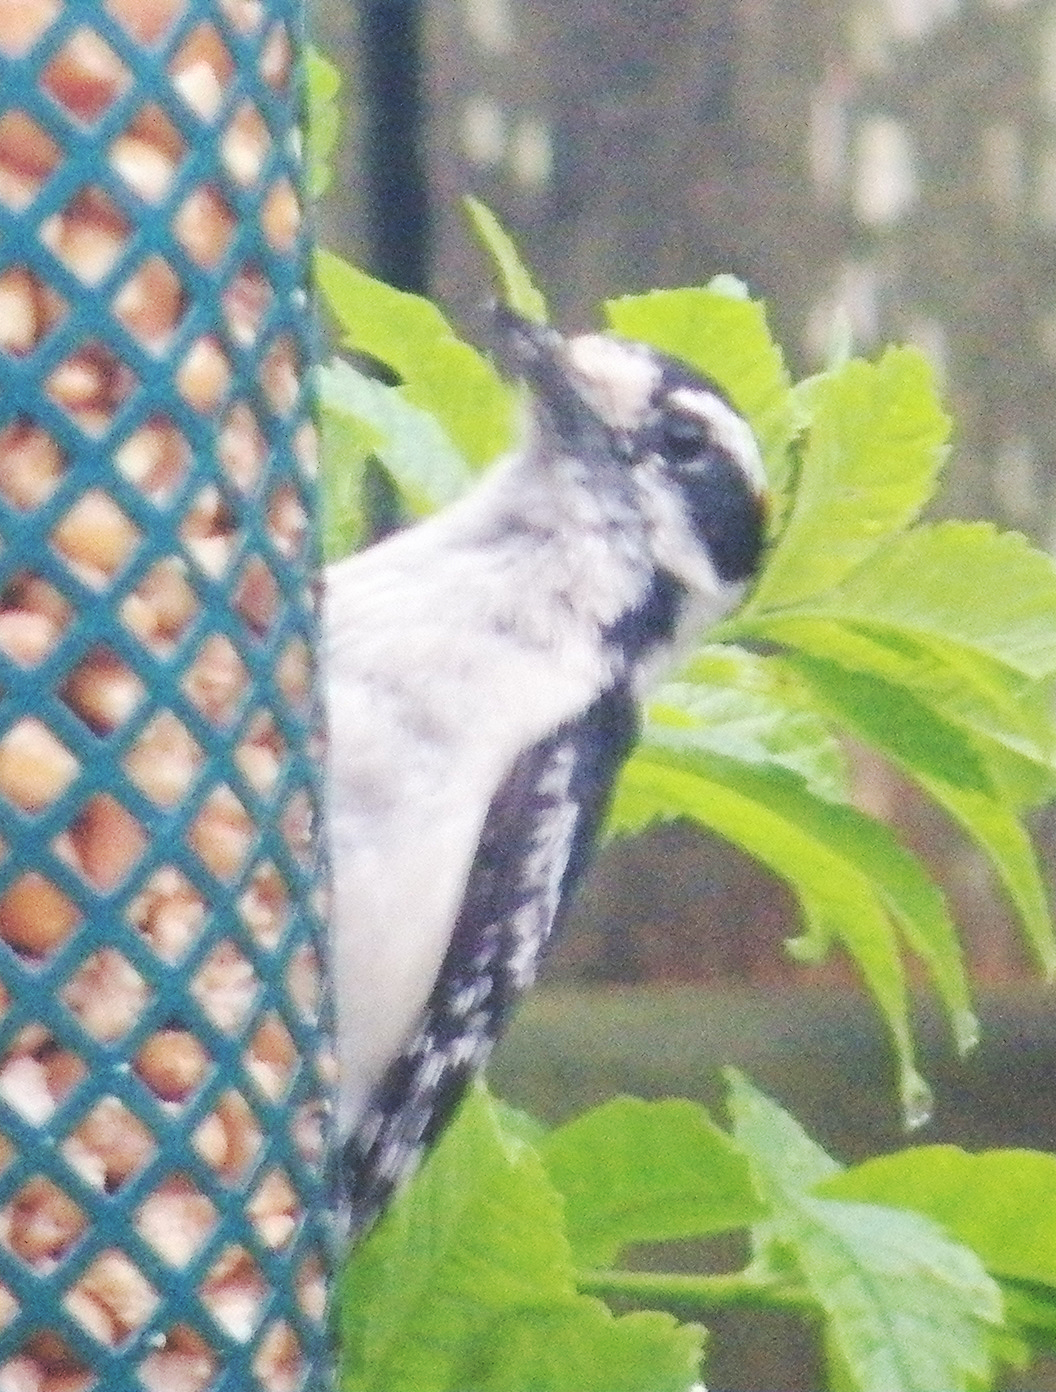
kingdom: Animalia
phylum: Chordata
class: Aves
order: Piciformes
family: Picidae
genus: Dryobates
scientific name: Dryobates pubescens
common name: Downy woodpecker
